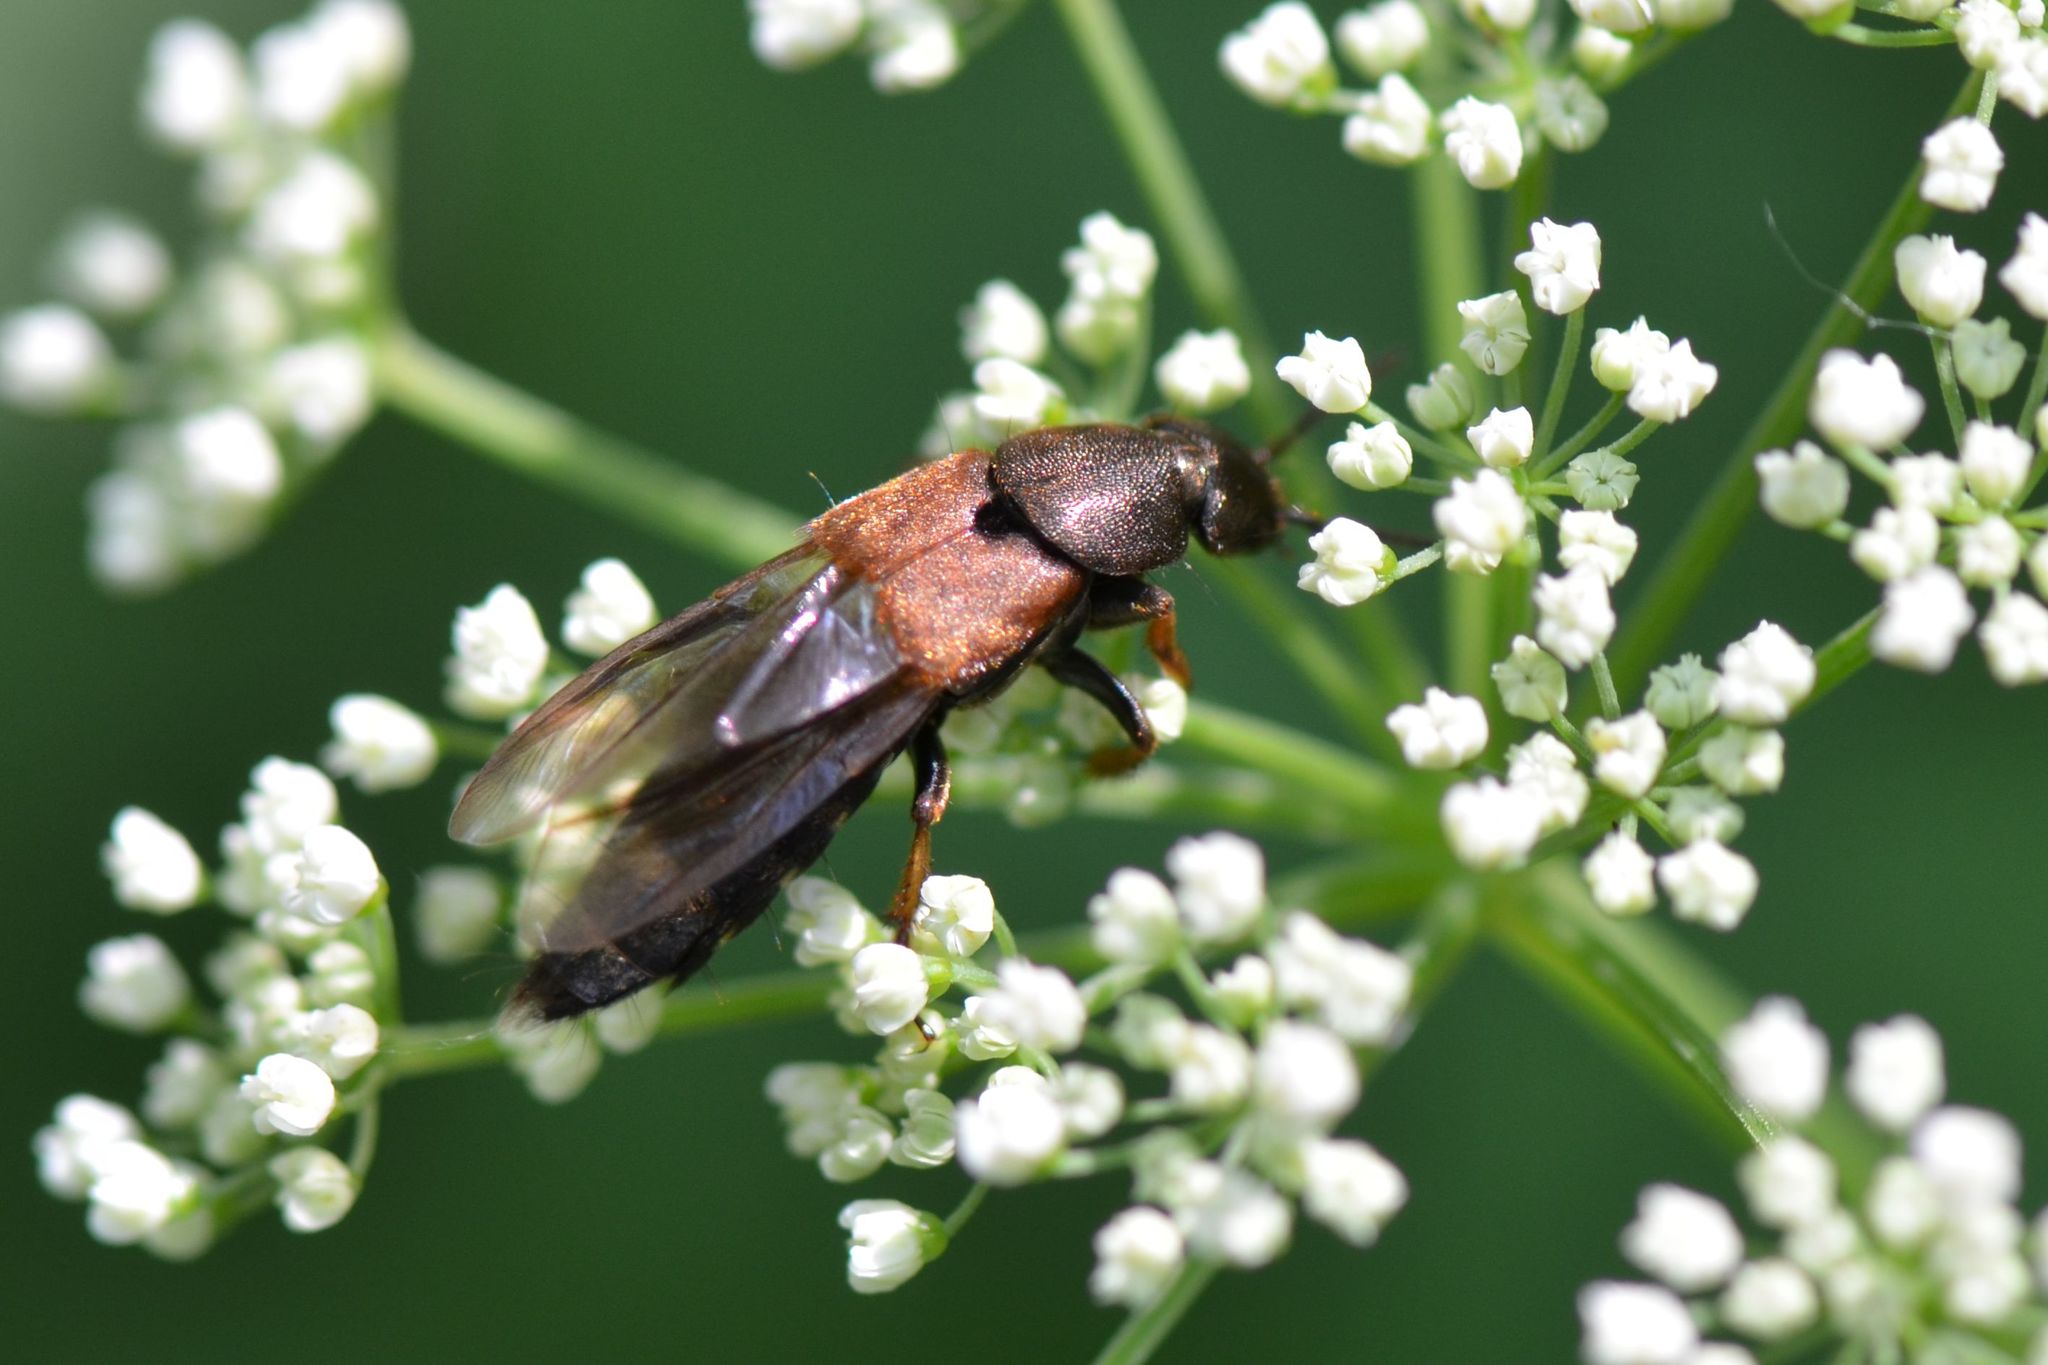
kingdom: Animalia
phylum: Arthropoda
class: Insecta
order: Coleoptera
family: Staphylinidae
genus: Platydracus
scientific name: Platydracus chalcocephalus
